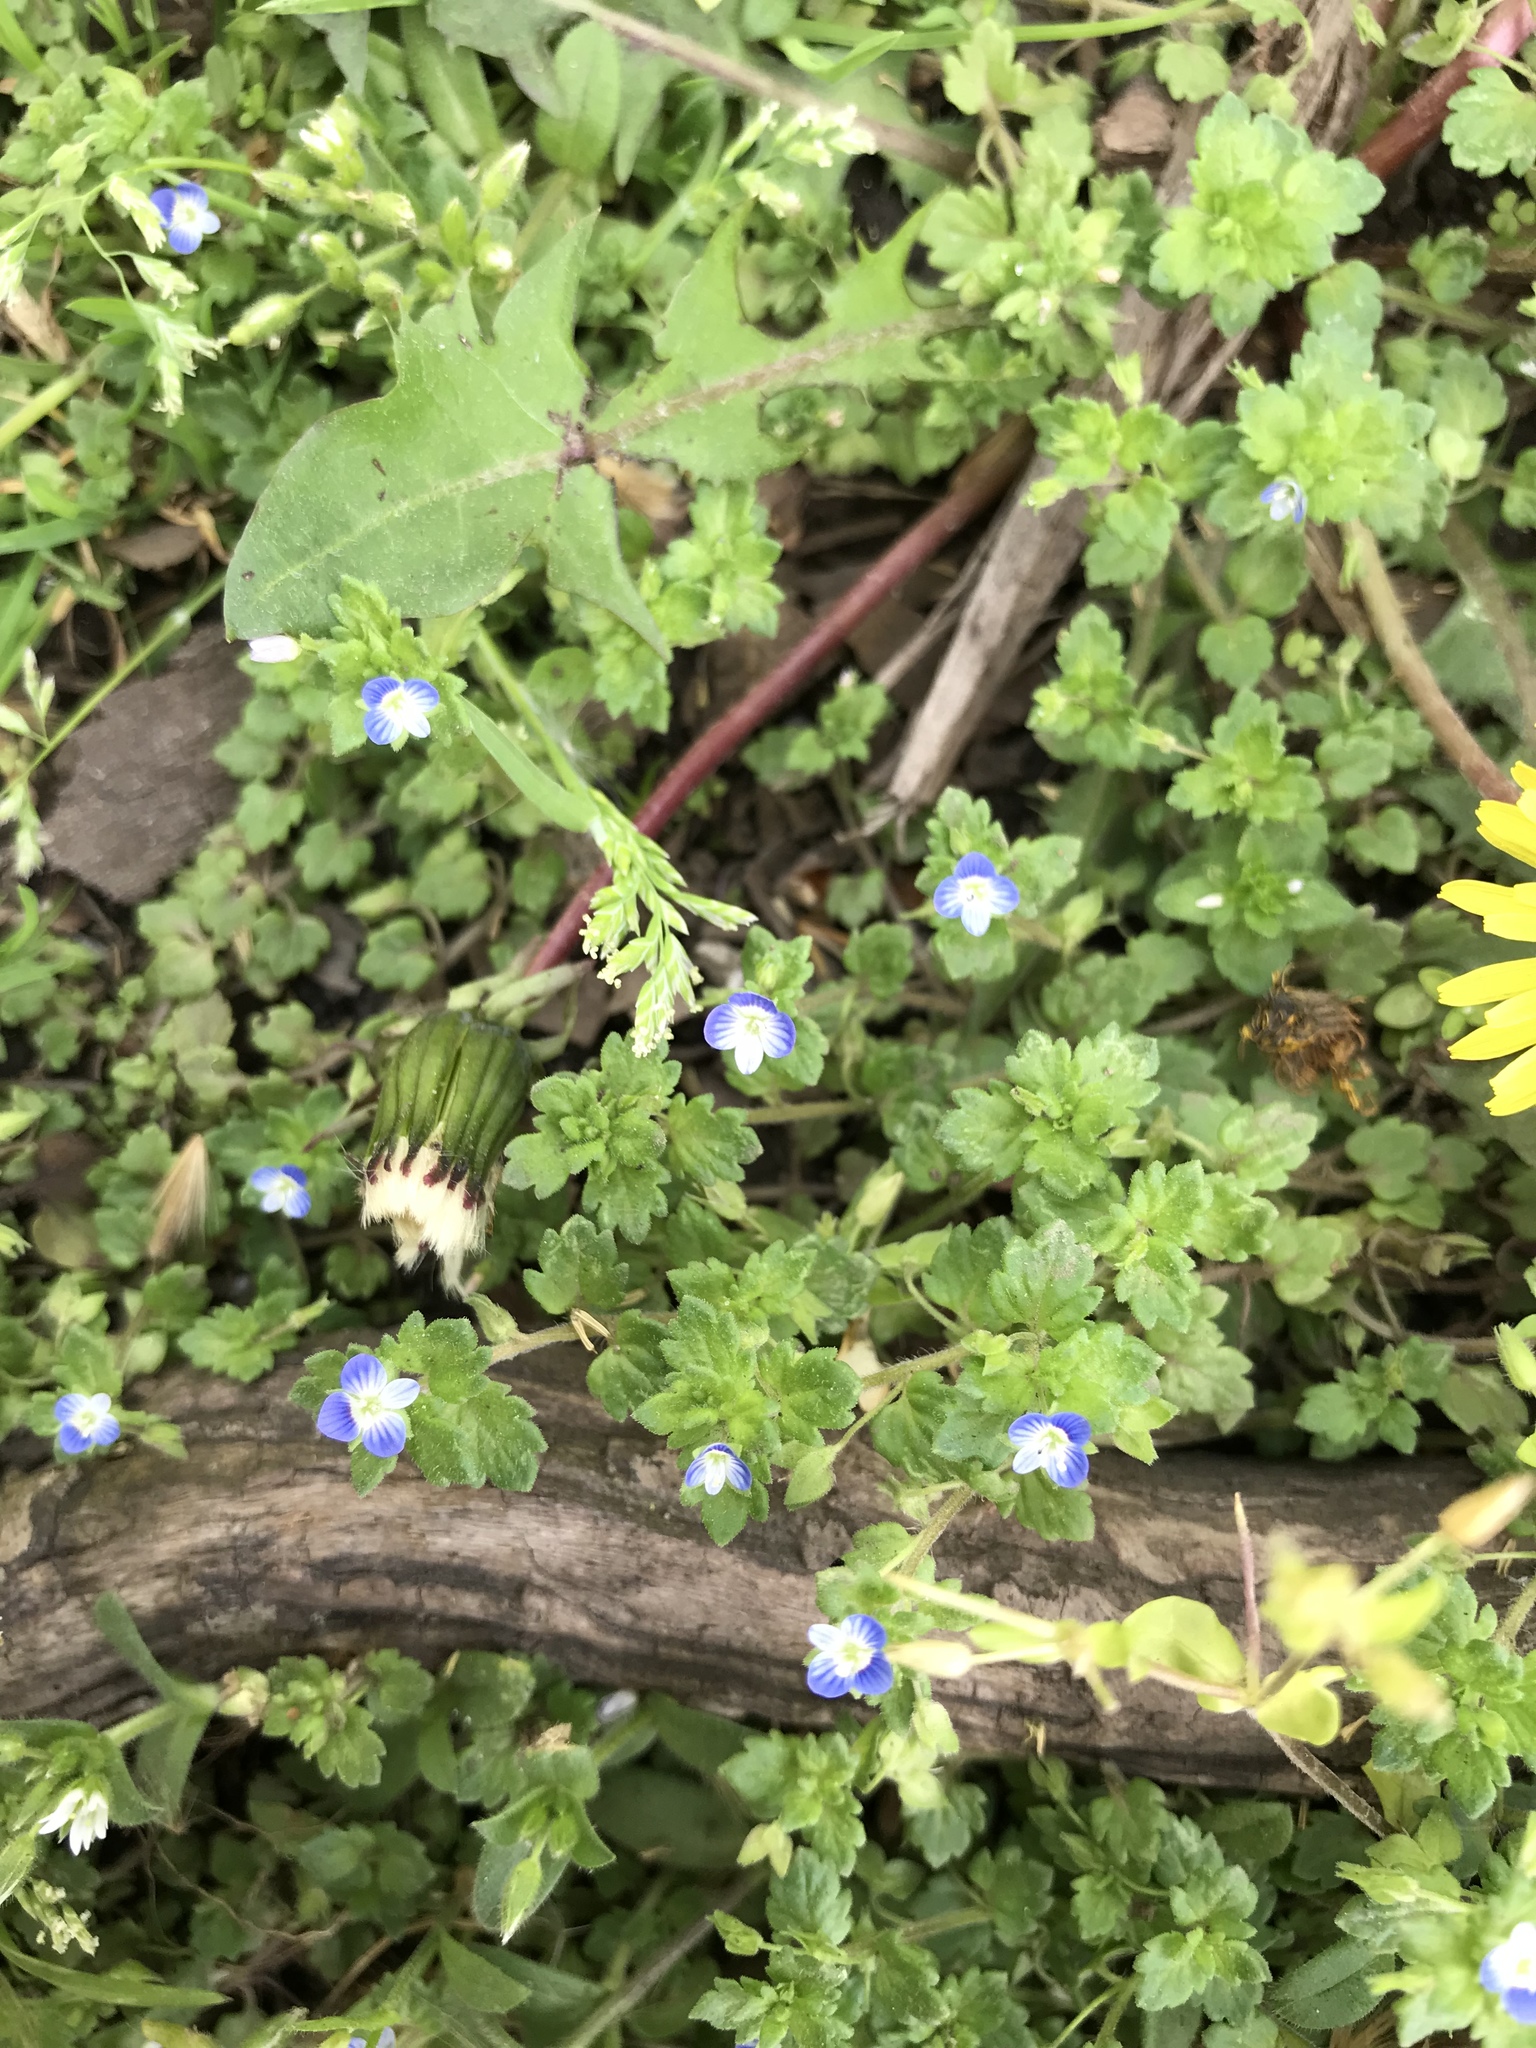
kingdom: Plantae
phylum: Tracheophyta
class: Magnoliopsida
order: Lamiales
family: Plantaginaceae
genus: Veronica
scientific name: Veronica
